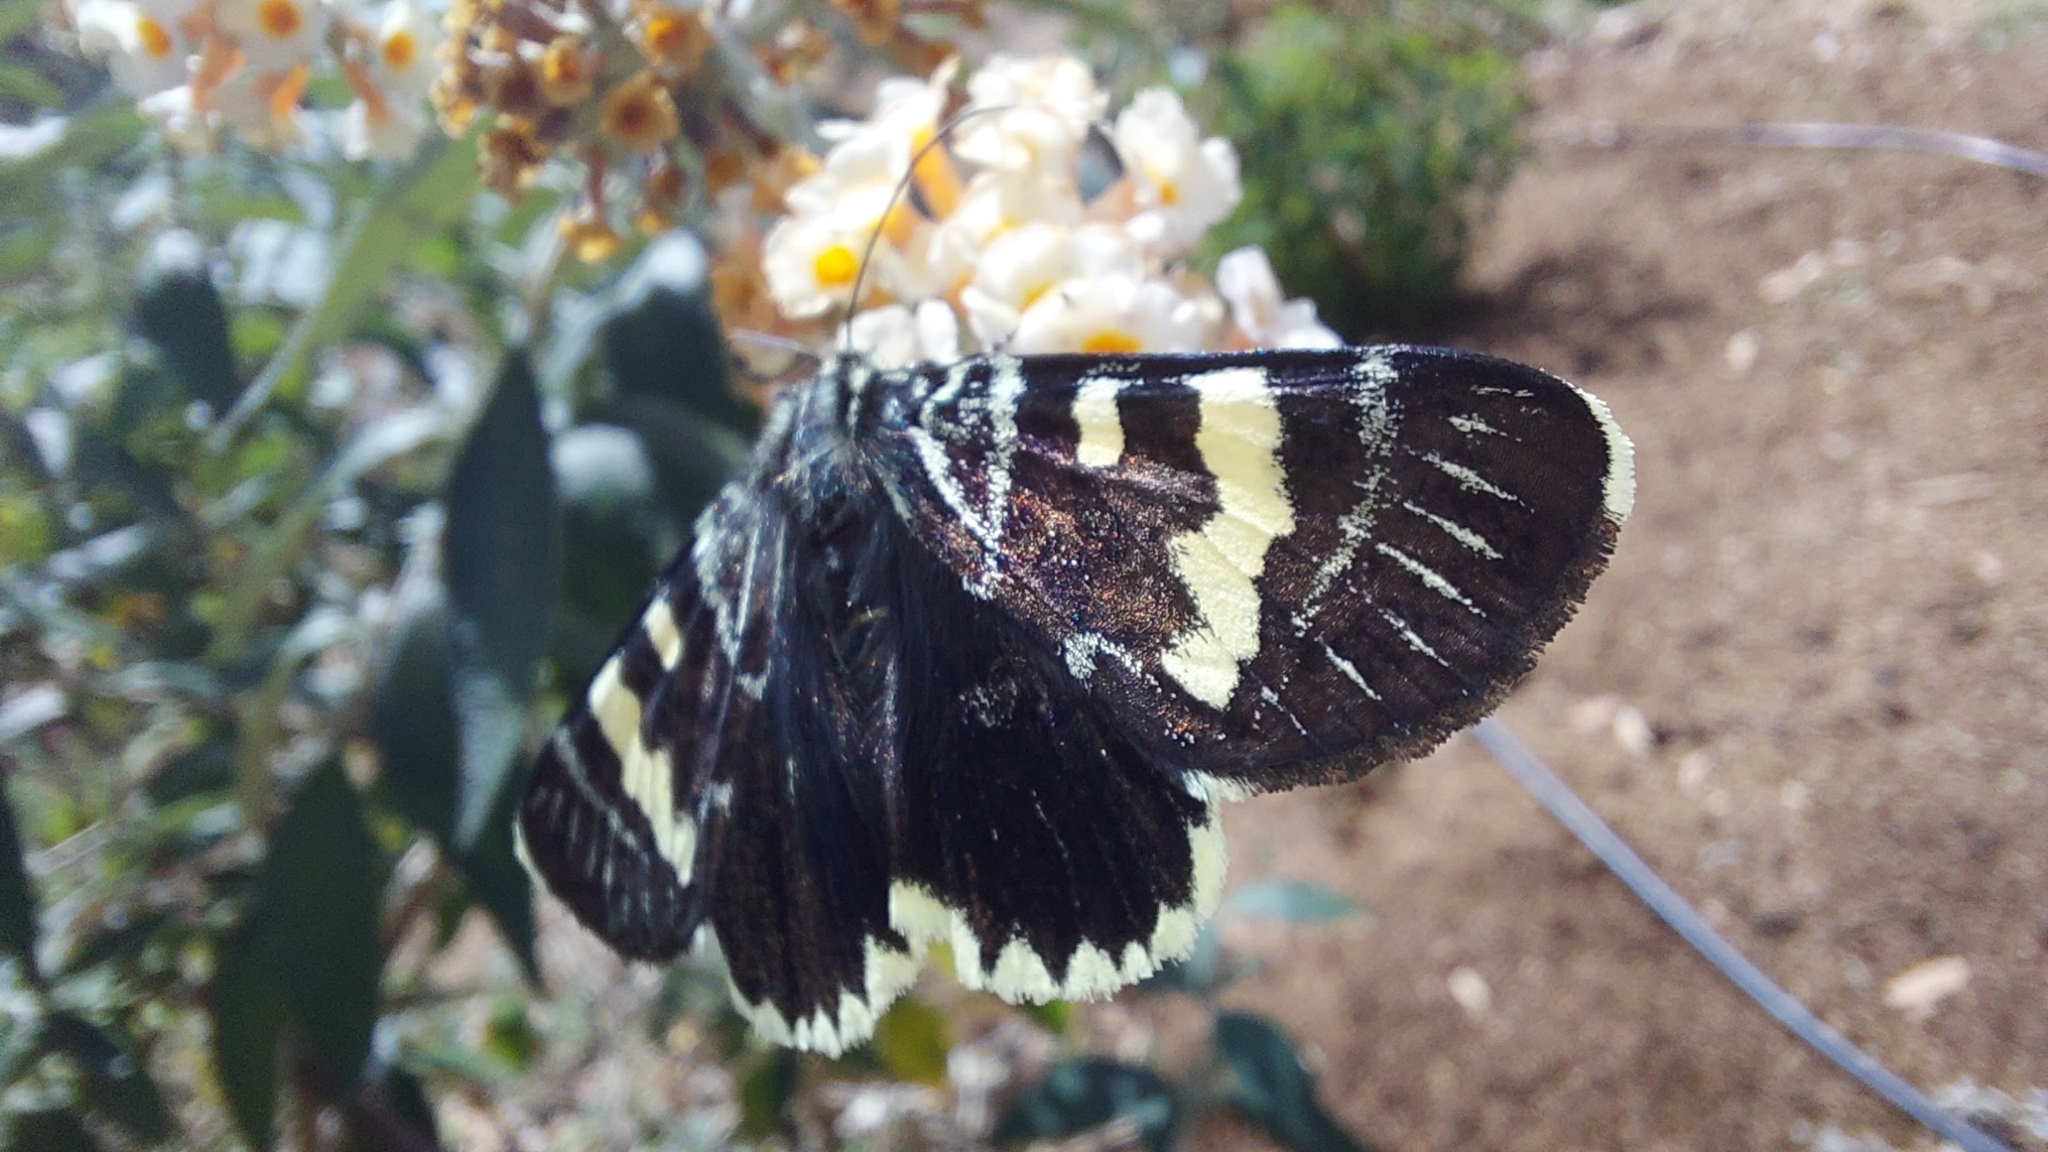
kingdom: Animalia
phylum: Arthropoda
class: Insecta
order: Lepidoptera
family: Noctuidae
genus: Phalaenoides
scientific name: Phalaenoides glycinae
